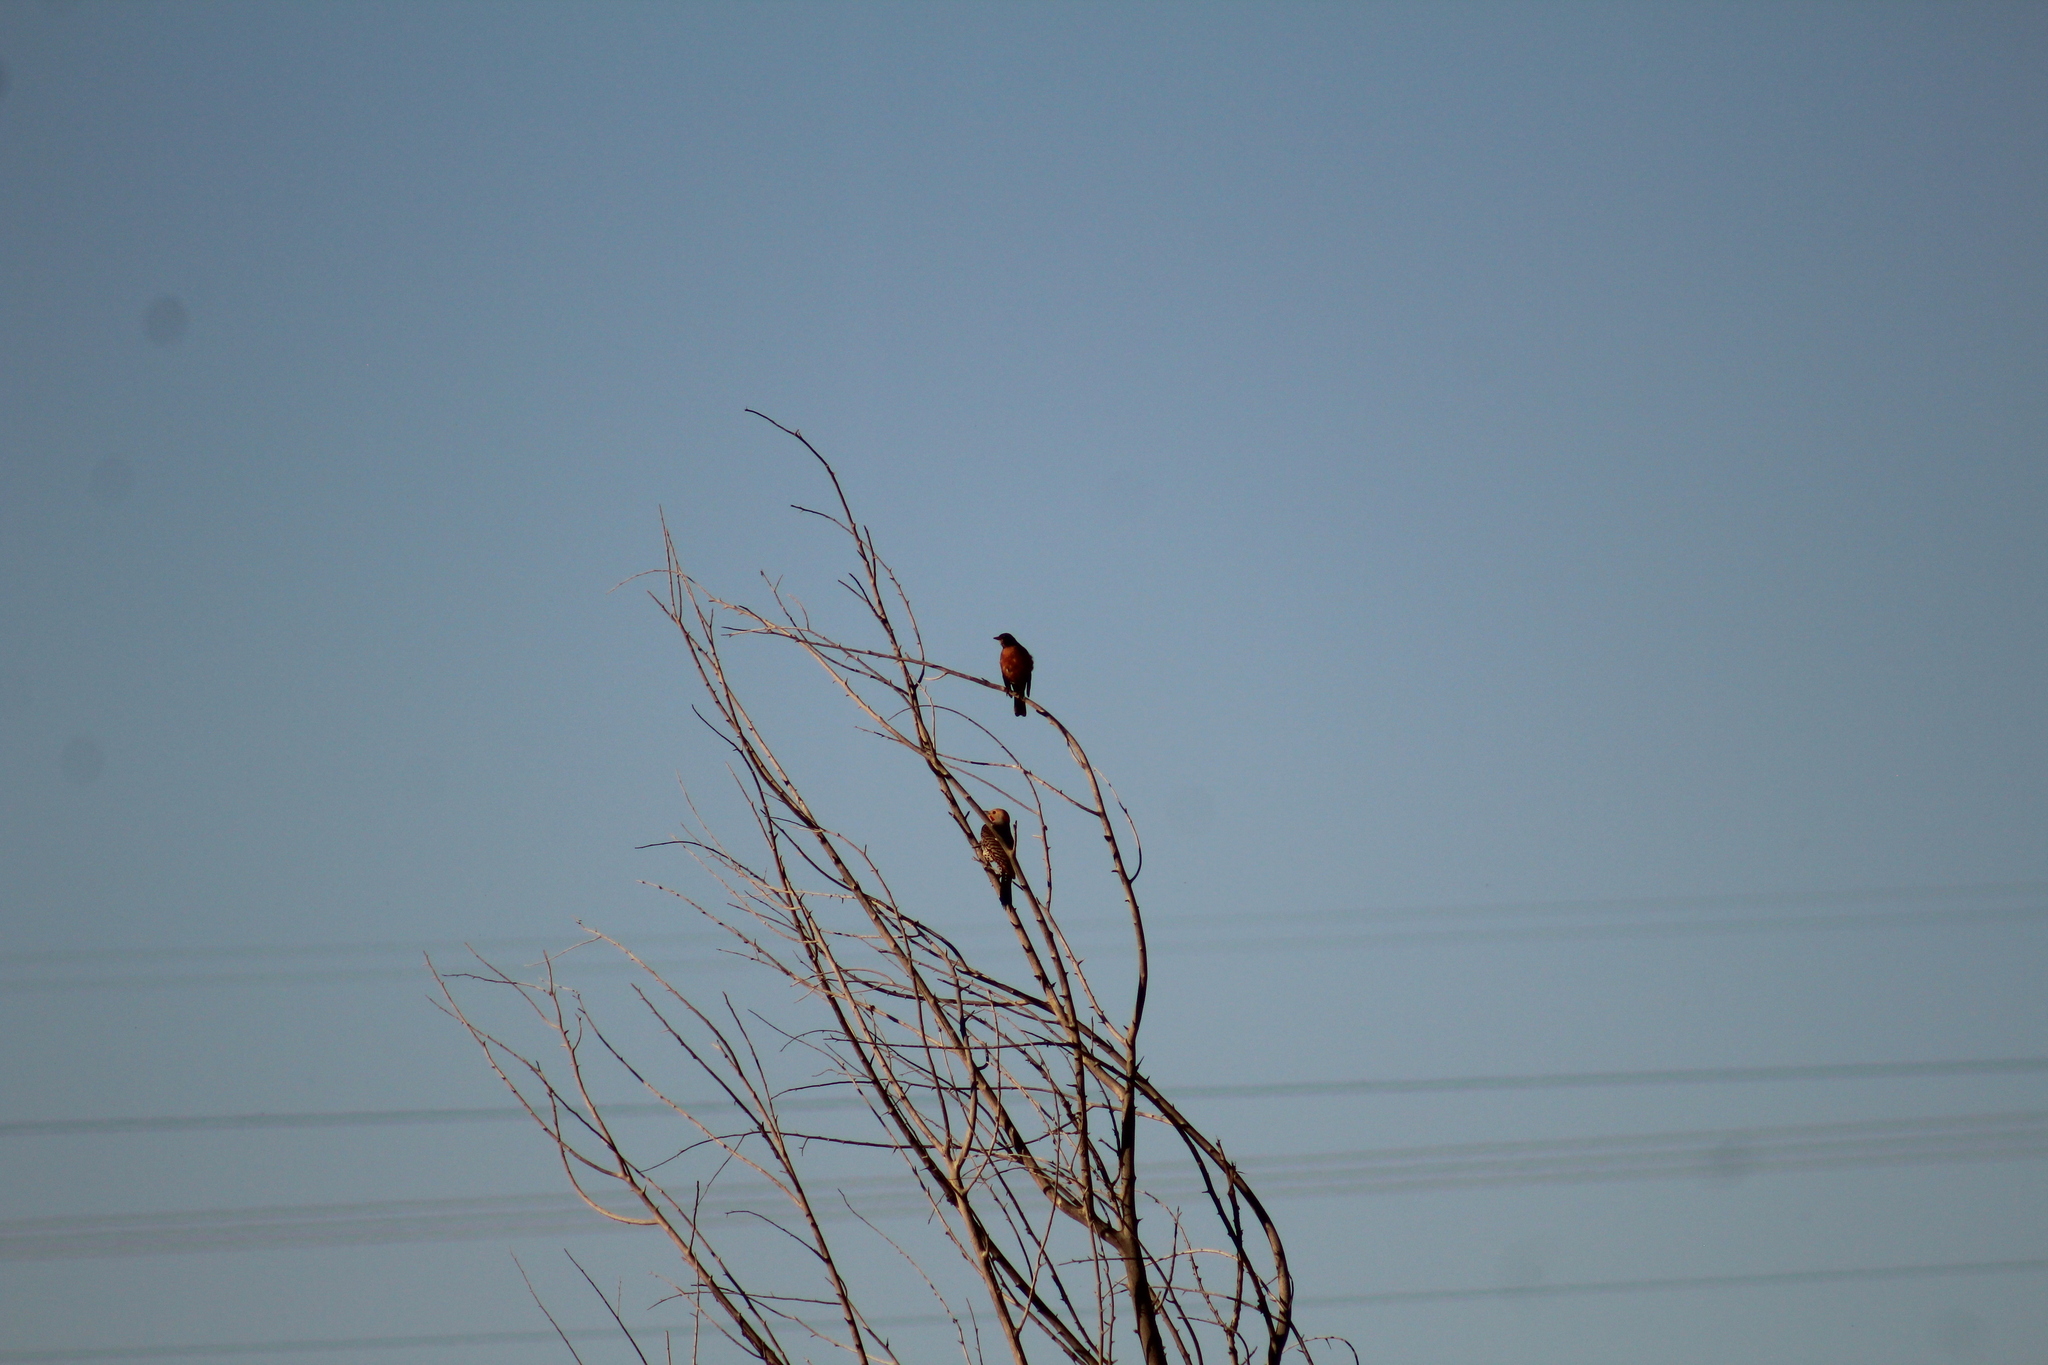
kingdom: Animalia
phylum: Chordata
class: Aves
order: Piciformes
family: Picidae
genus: Colaptes
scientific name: Colaptes auratus
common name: Northern flicker
